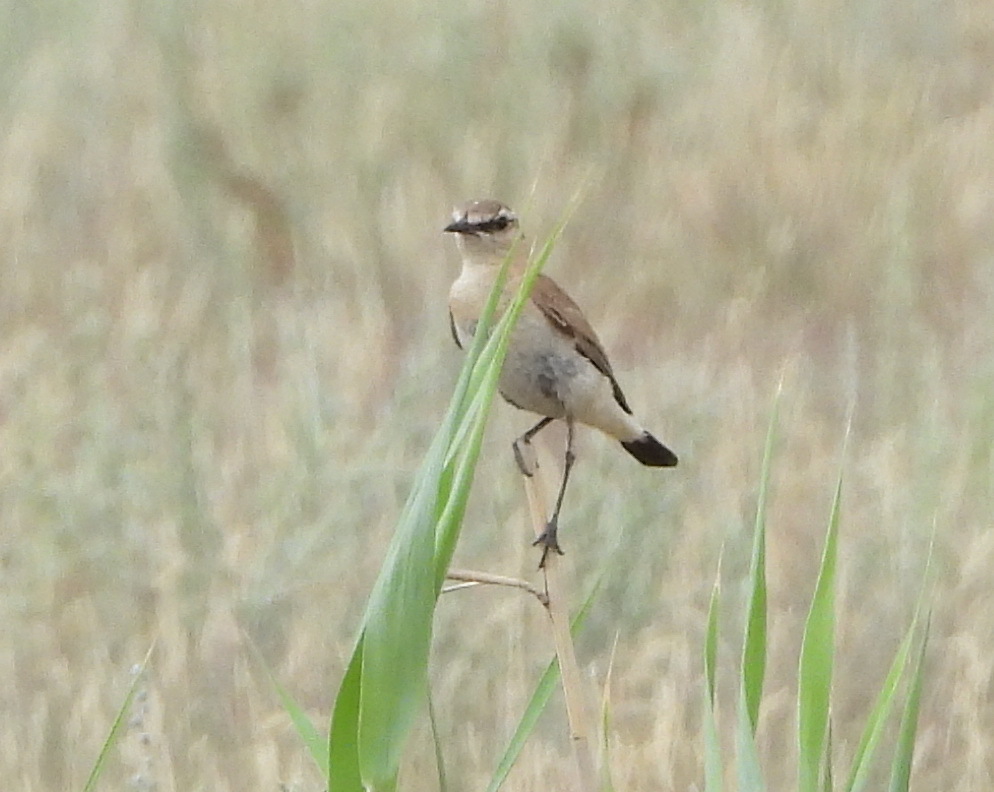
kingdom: Animalia
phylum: Chordata
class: Aves
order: Passeriformes
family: Muscicapidae
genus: Oenanthe
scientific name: Oenanthe isabellina
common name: Isabelline wheatear
